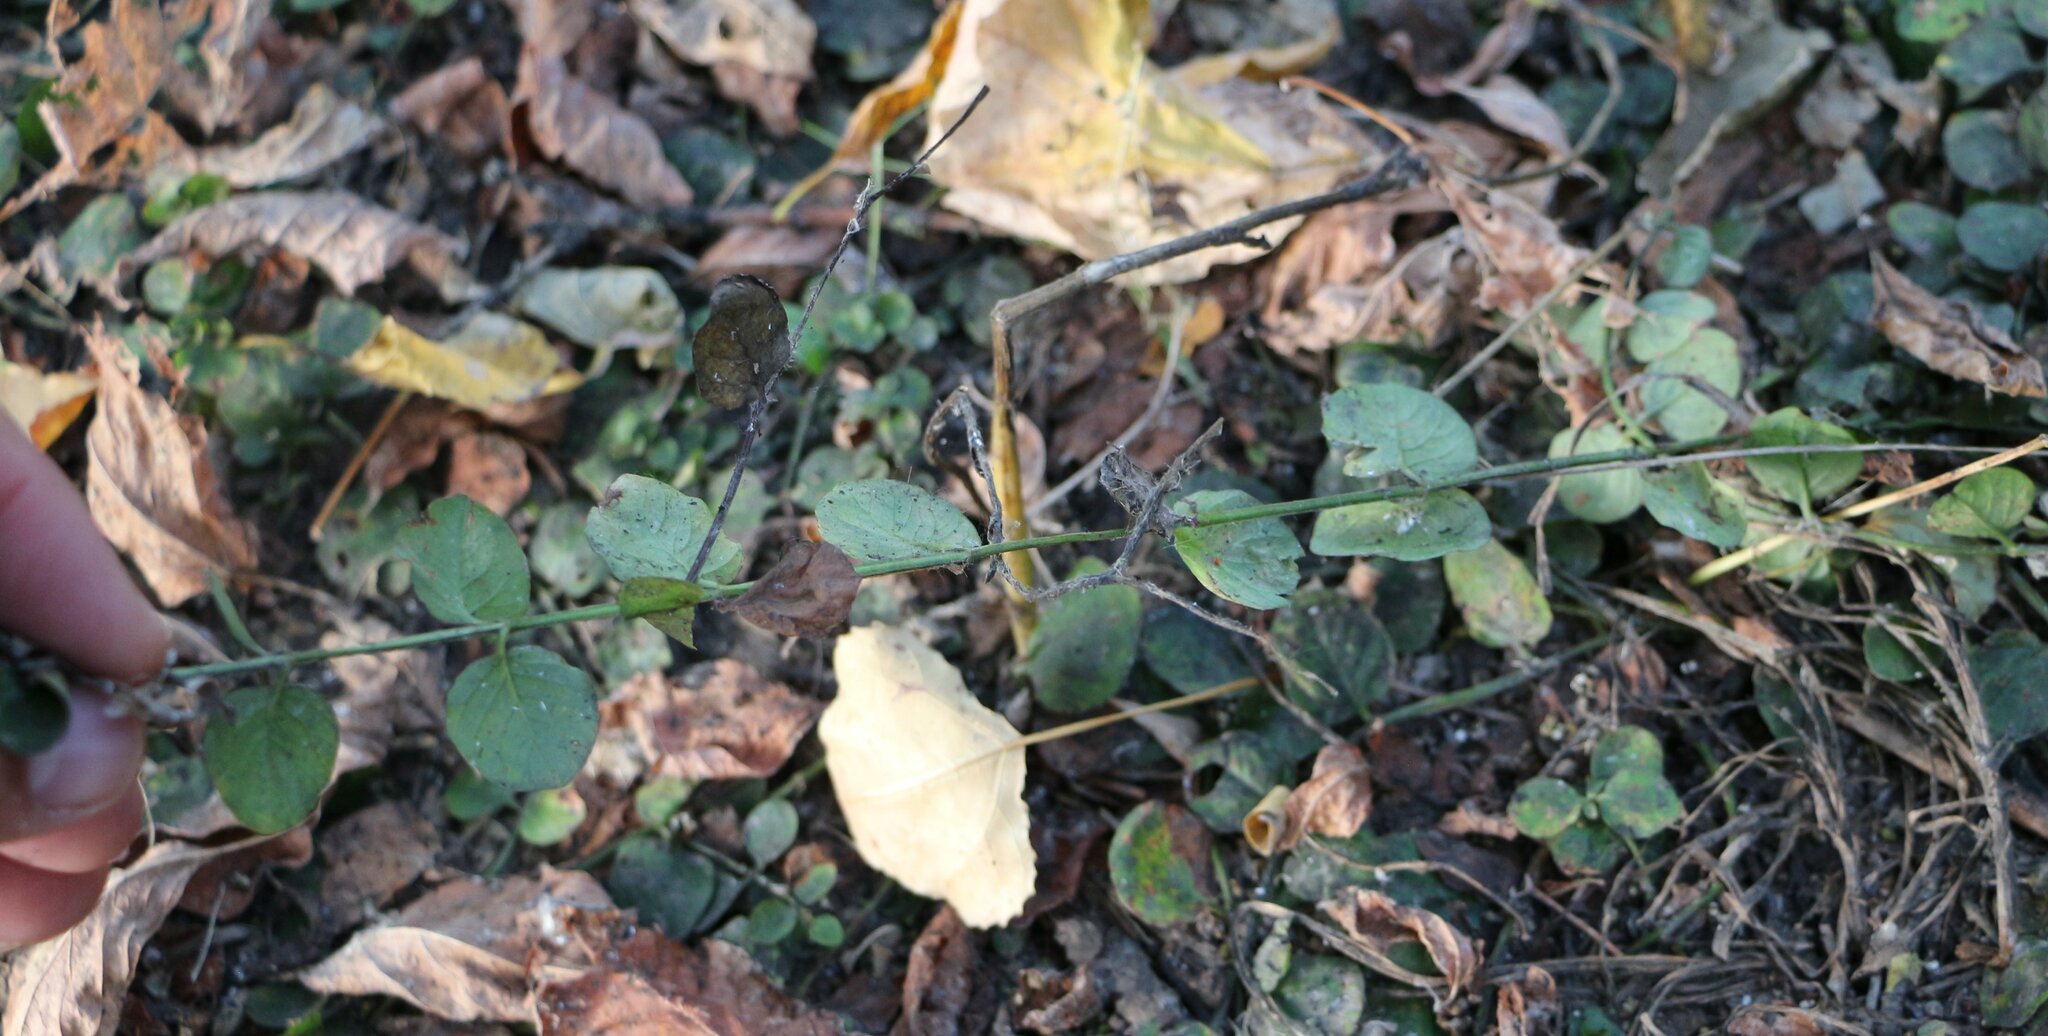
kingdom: Plantae
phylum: Tracheophyta
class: Magnoliopsida
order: Ericales
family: Primulaceae
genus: Lysimachia
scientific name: Lysimachia nummularia
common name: Moneywort
